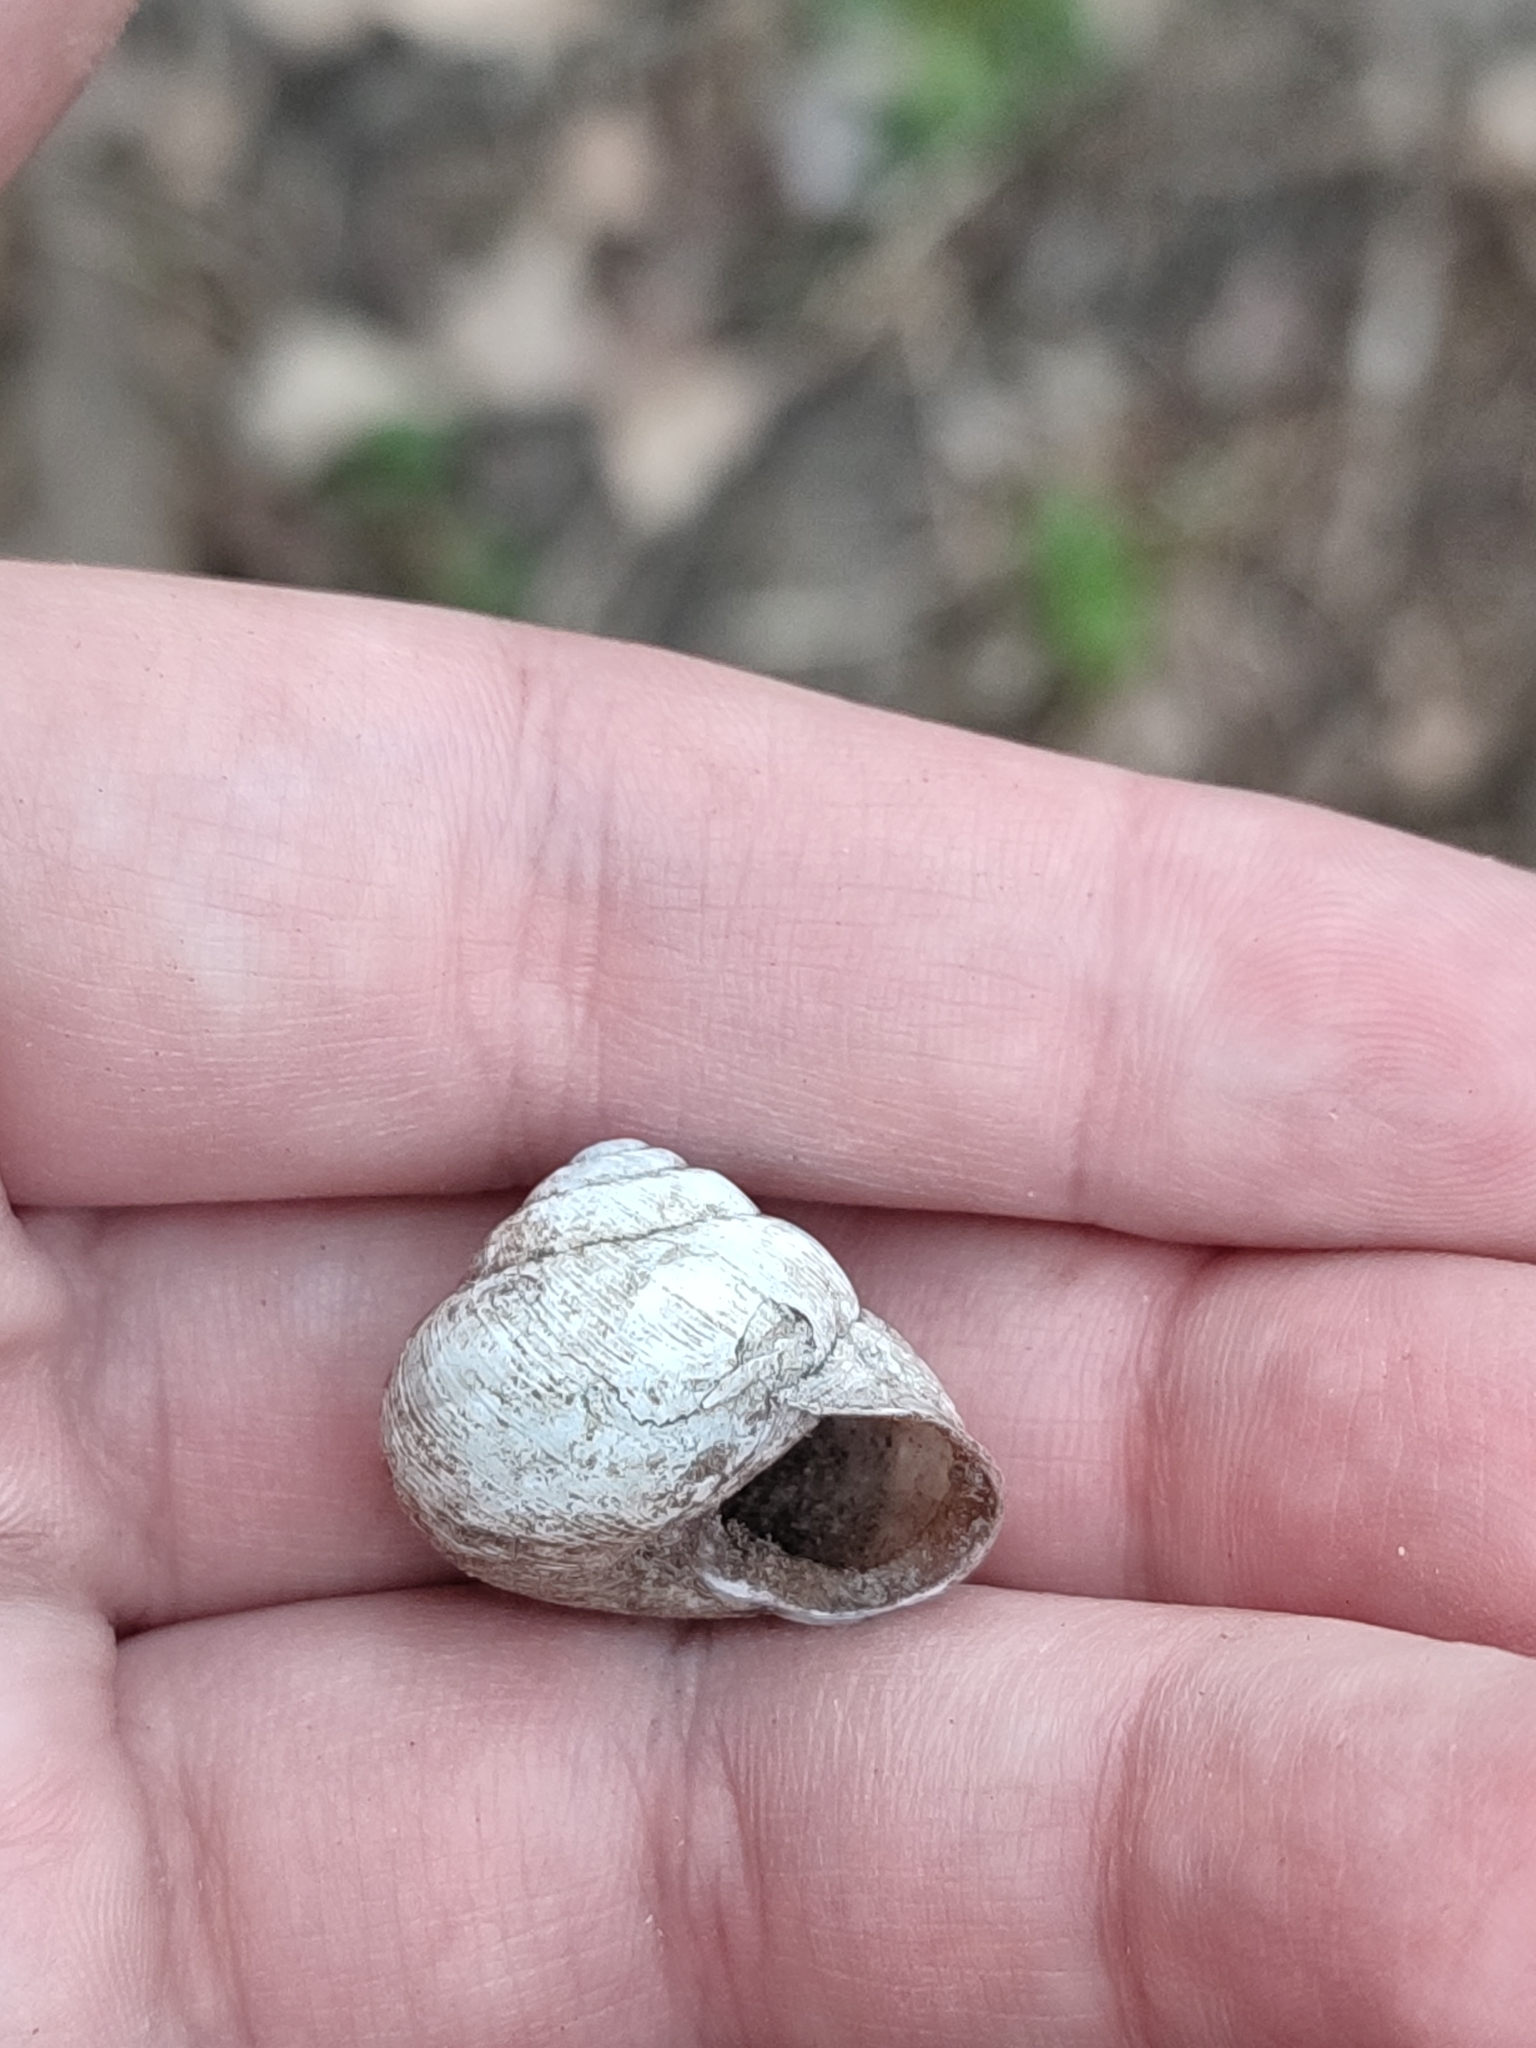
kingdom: Animalia
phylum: Mollusca
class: Gastropoda
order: Stylommatophora
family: Helicidae
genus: Caucasotachea
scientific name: Caucasotachea vindobonensis
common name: European helicid land snail
